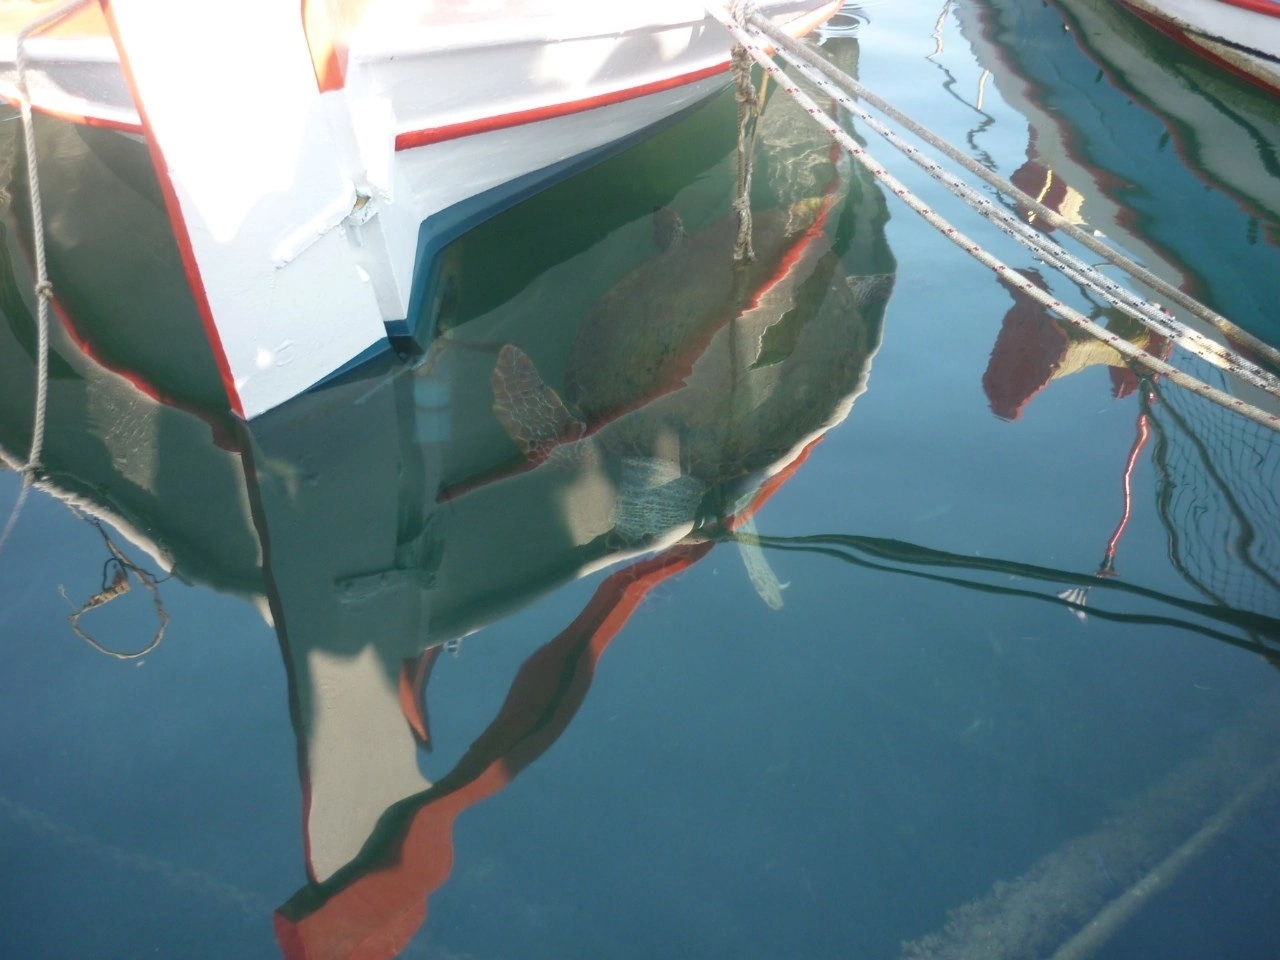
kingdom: Animalia
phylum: Chordata
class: Testudines
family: Cheloniidae
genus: Caretta
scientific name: Caretta caretta
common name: Loggerhead sea turtle
